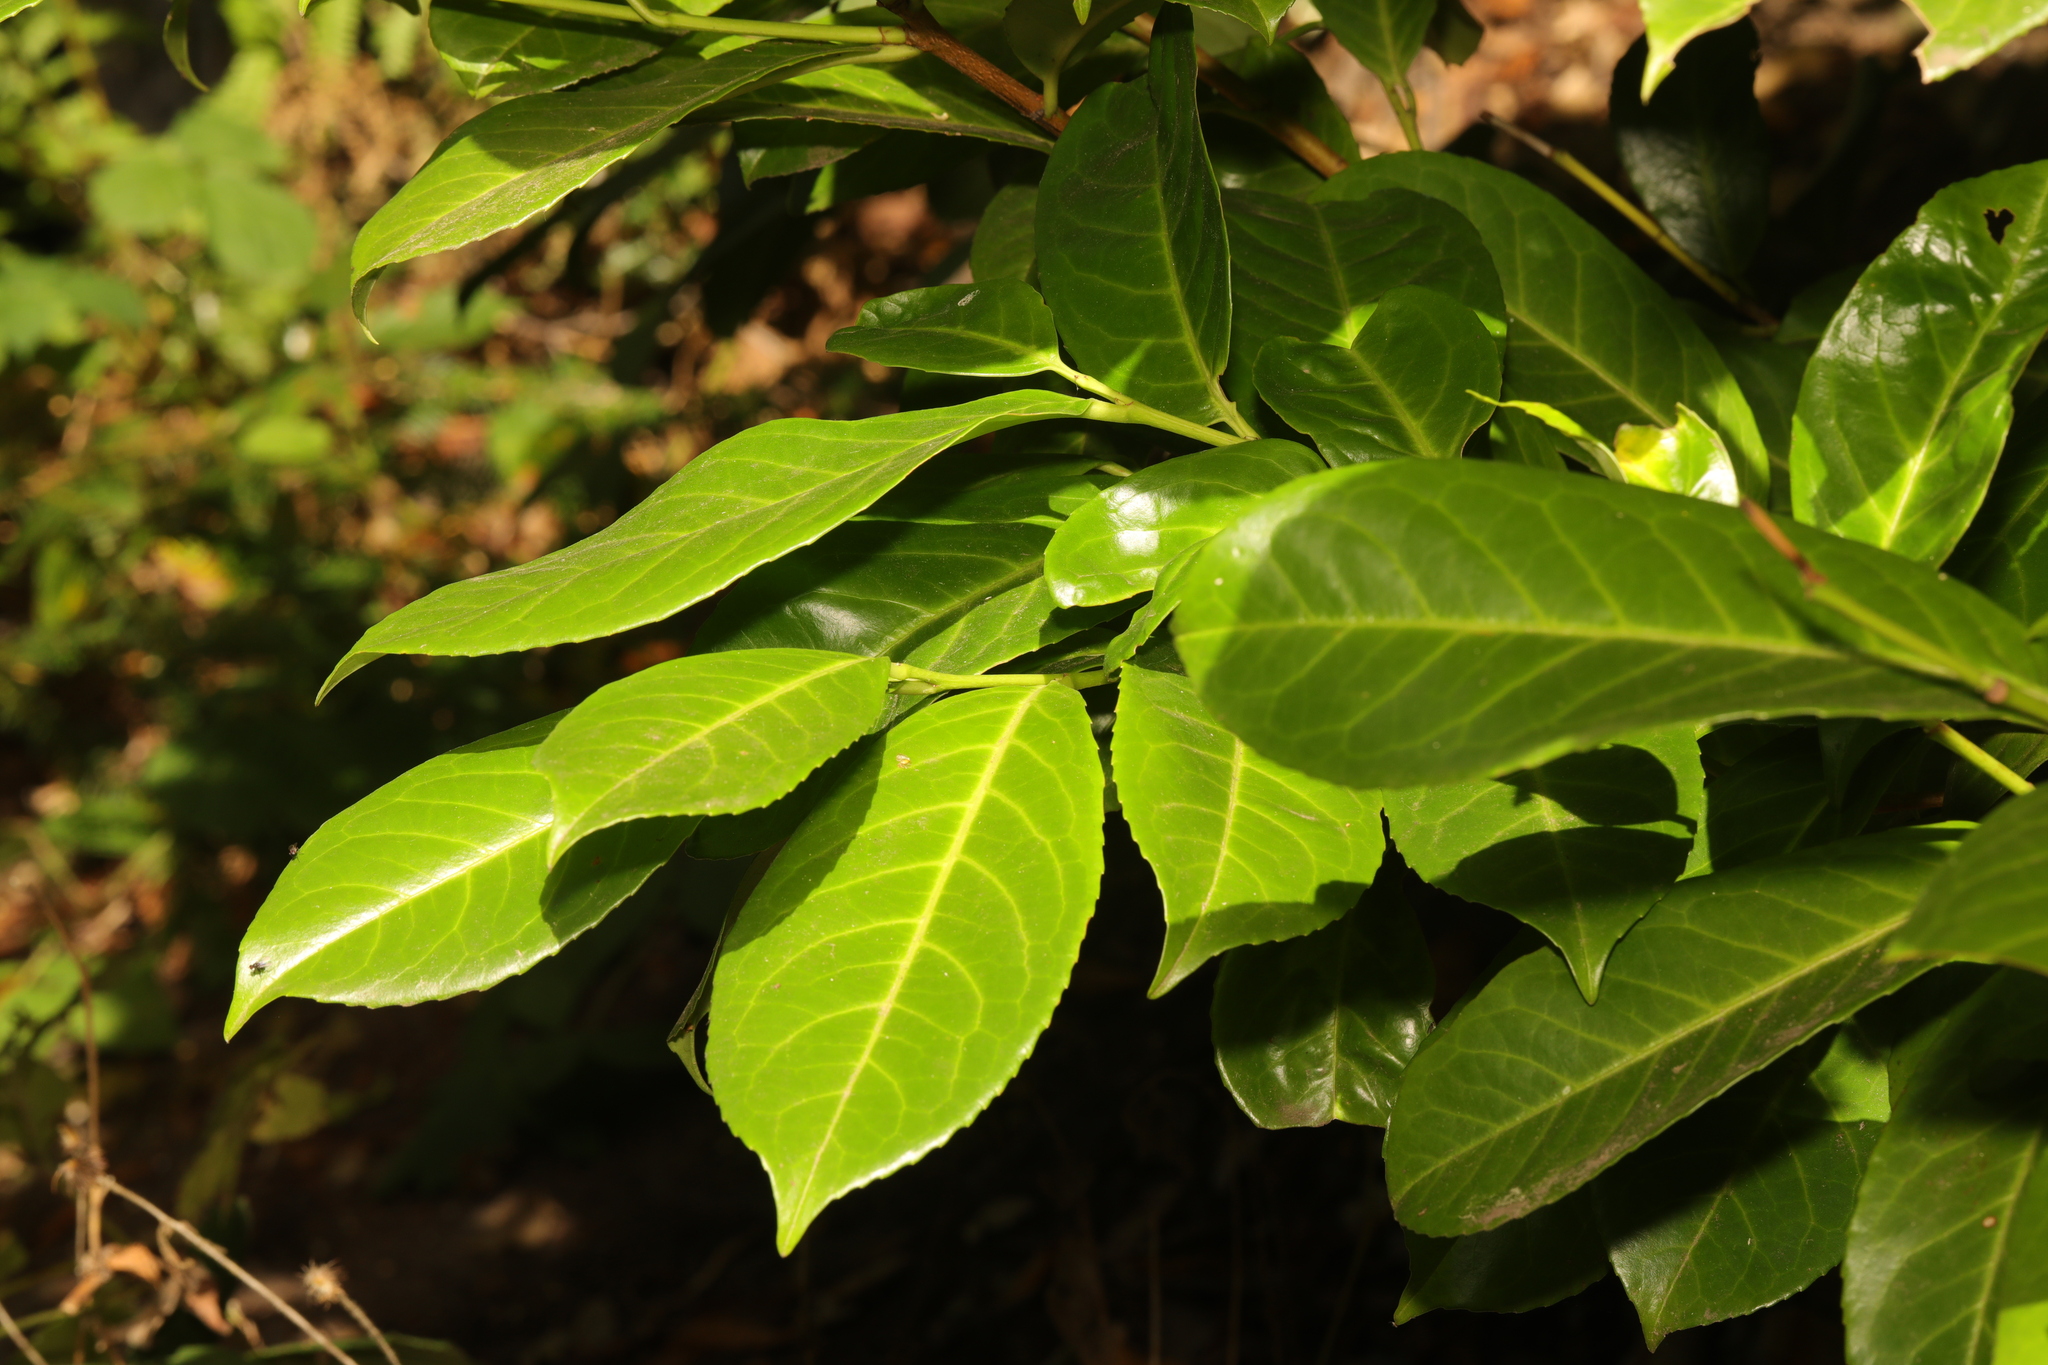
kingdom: Plantae
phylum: Tracheophyta
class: Magnoliopsida
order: Rosales
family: Rosaceae
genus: Prunus
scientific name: Prunus laurocerasus
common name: Cherry laurel
